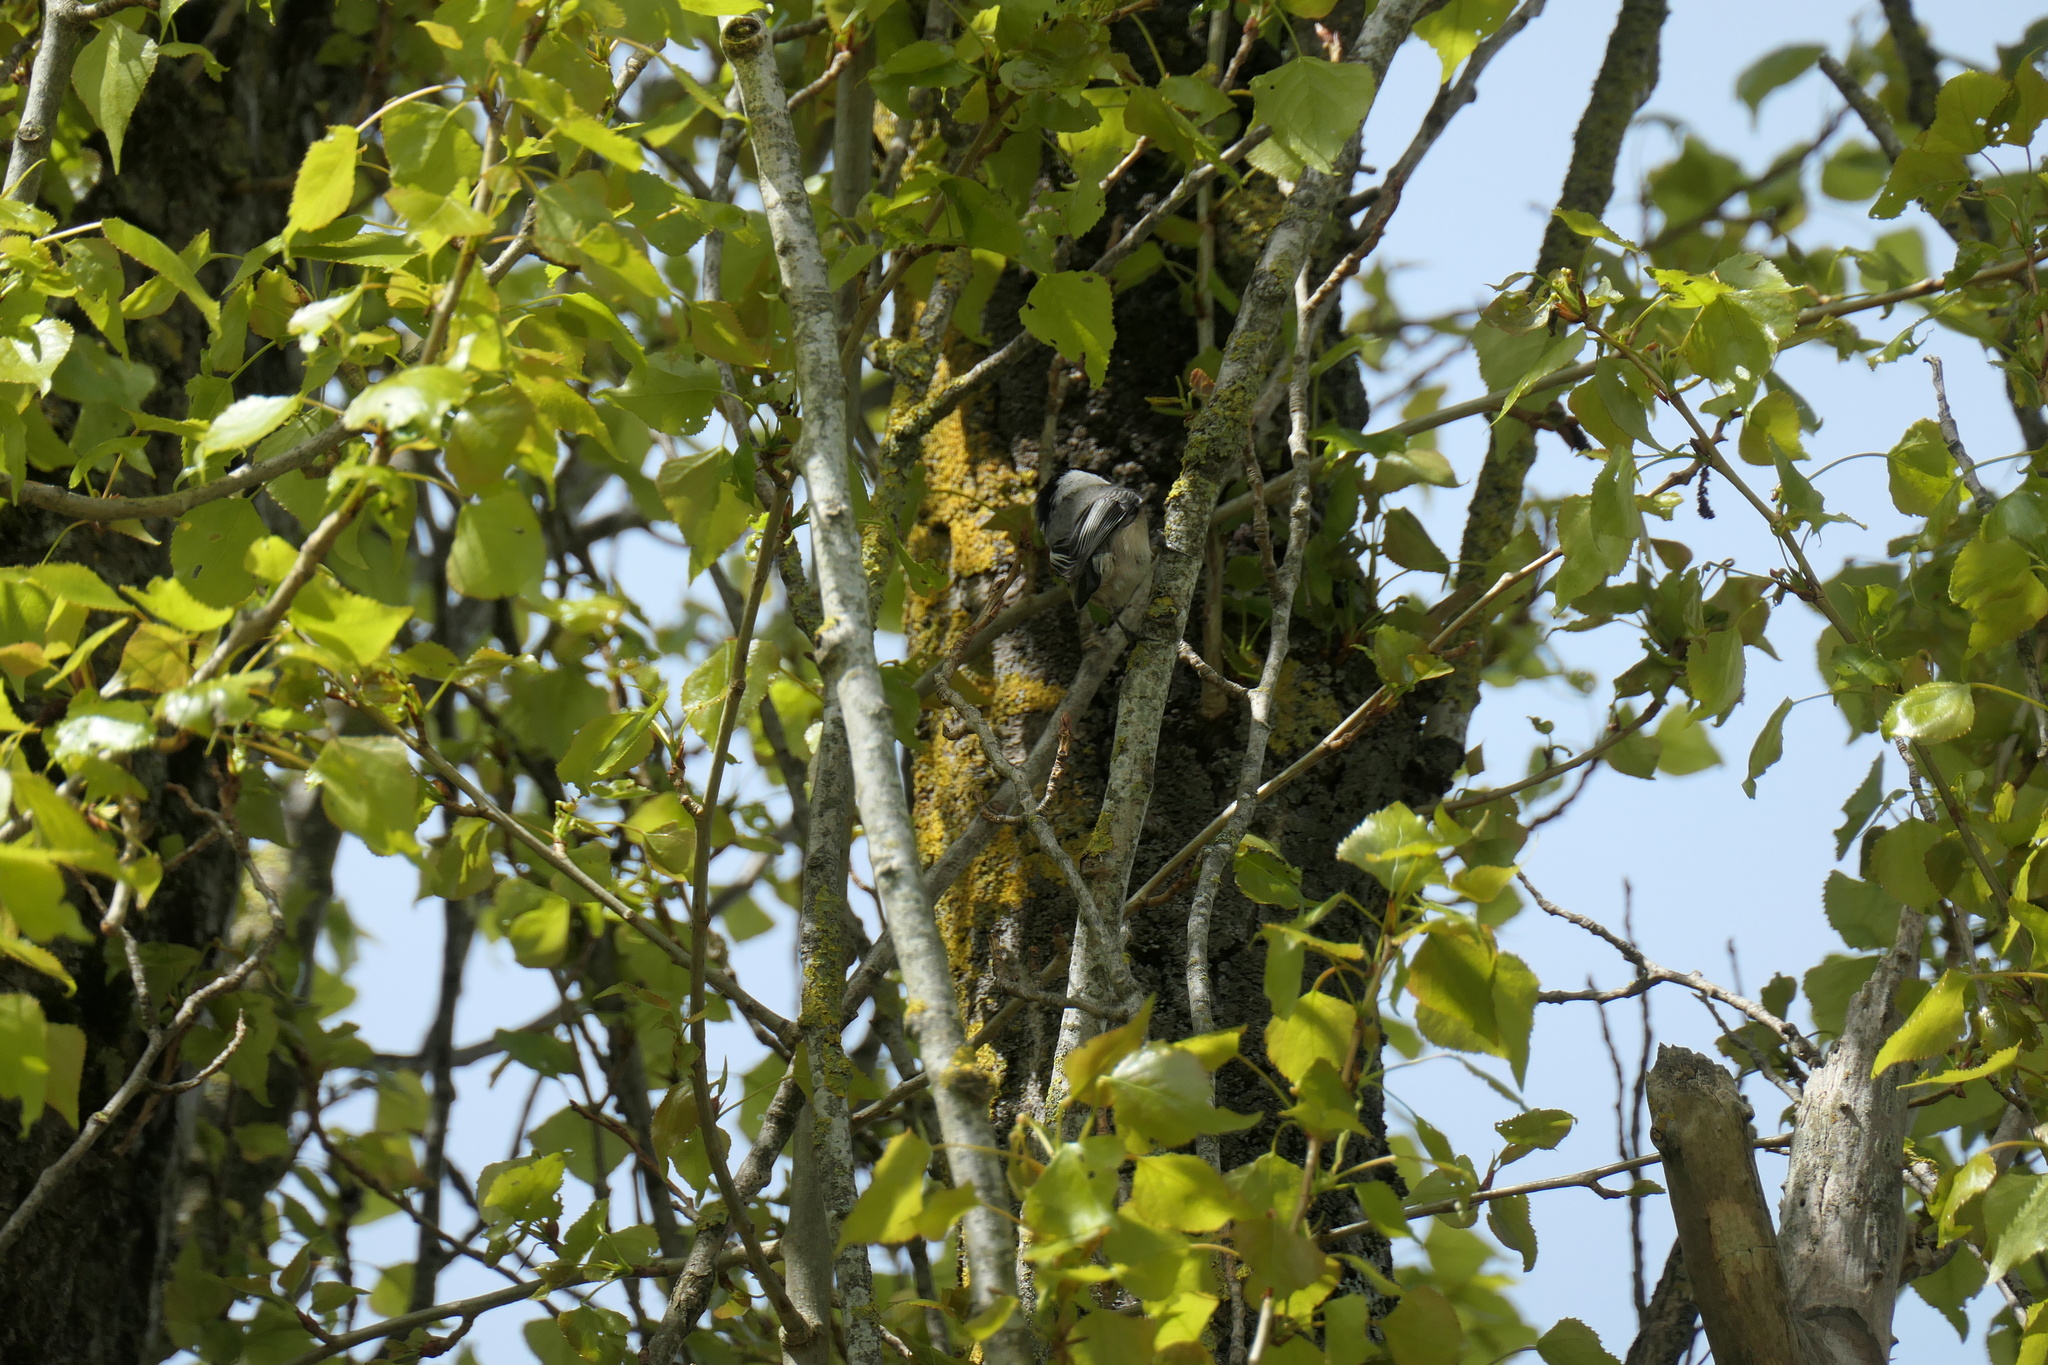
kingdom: Animalia
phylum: Chordata
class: Aves
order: Passeriformes
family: Paridae
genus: Poecile
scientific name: Poecile atricapillus
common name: Black-capped chickadee
